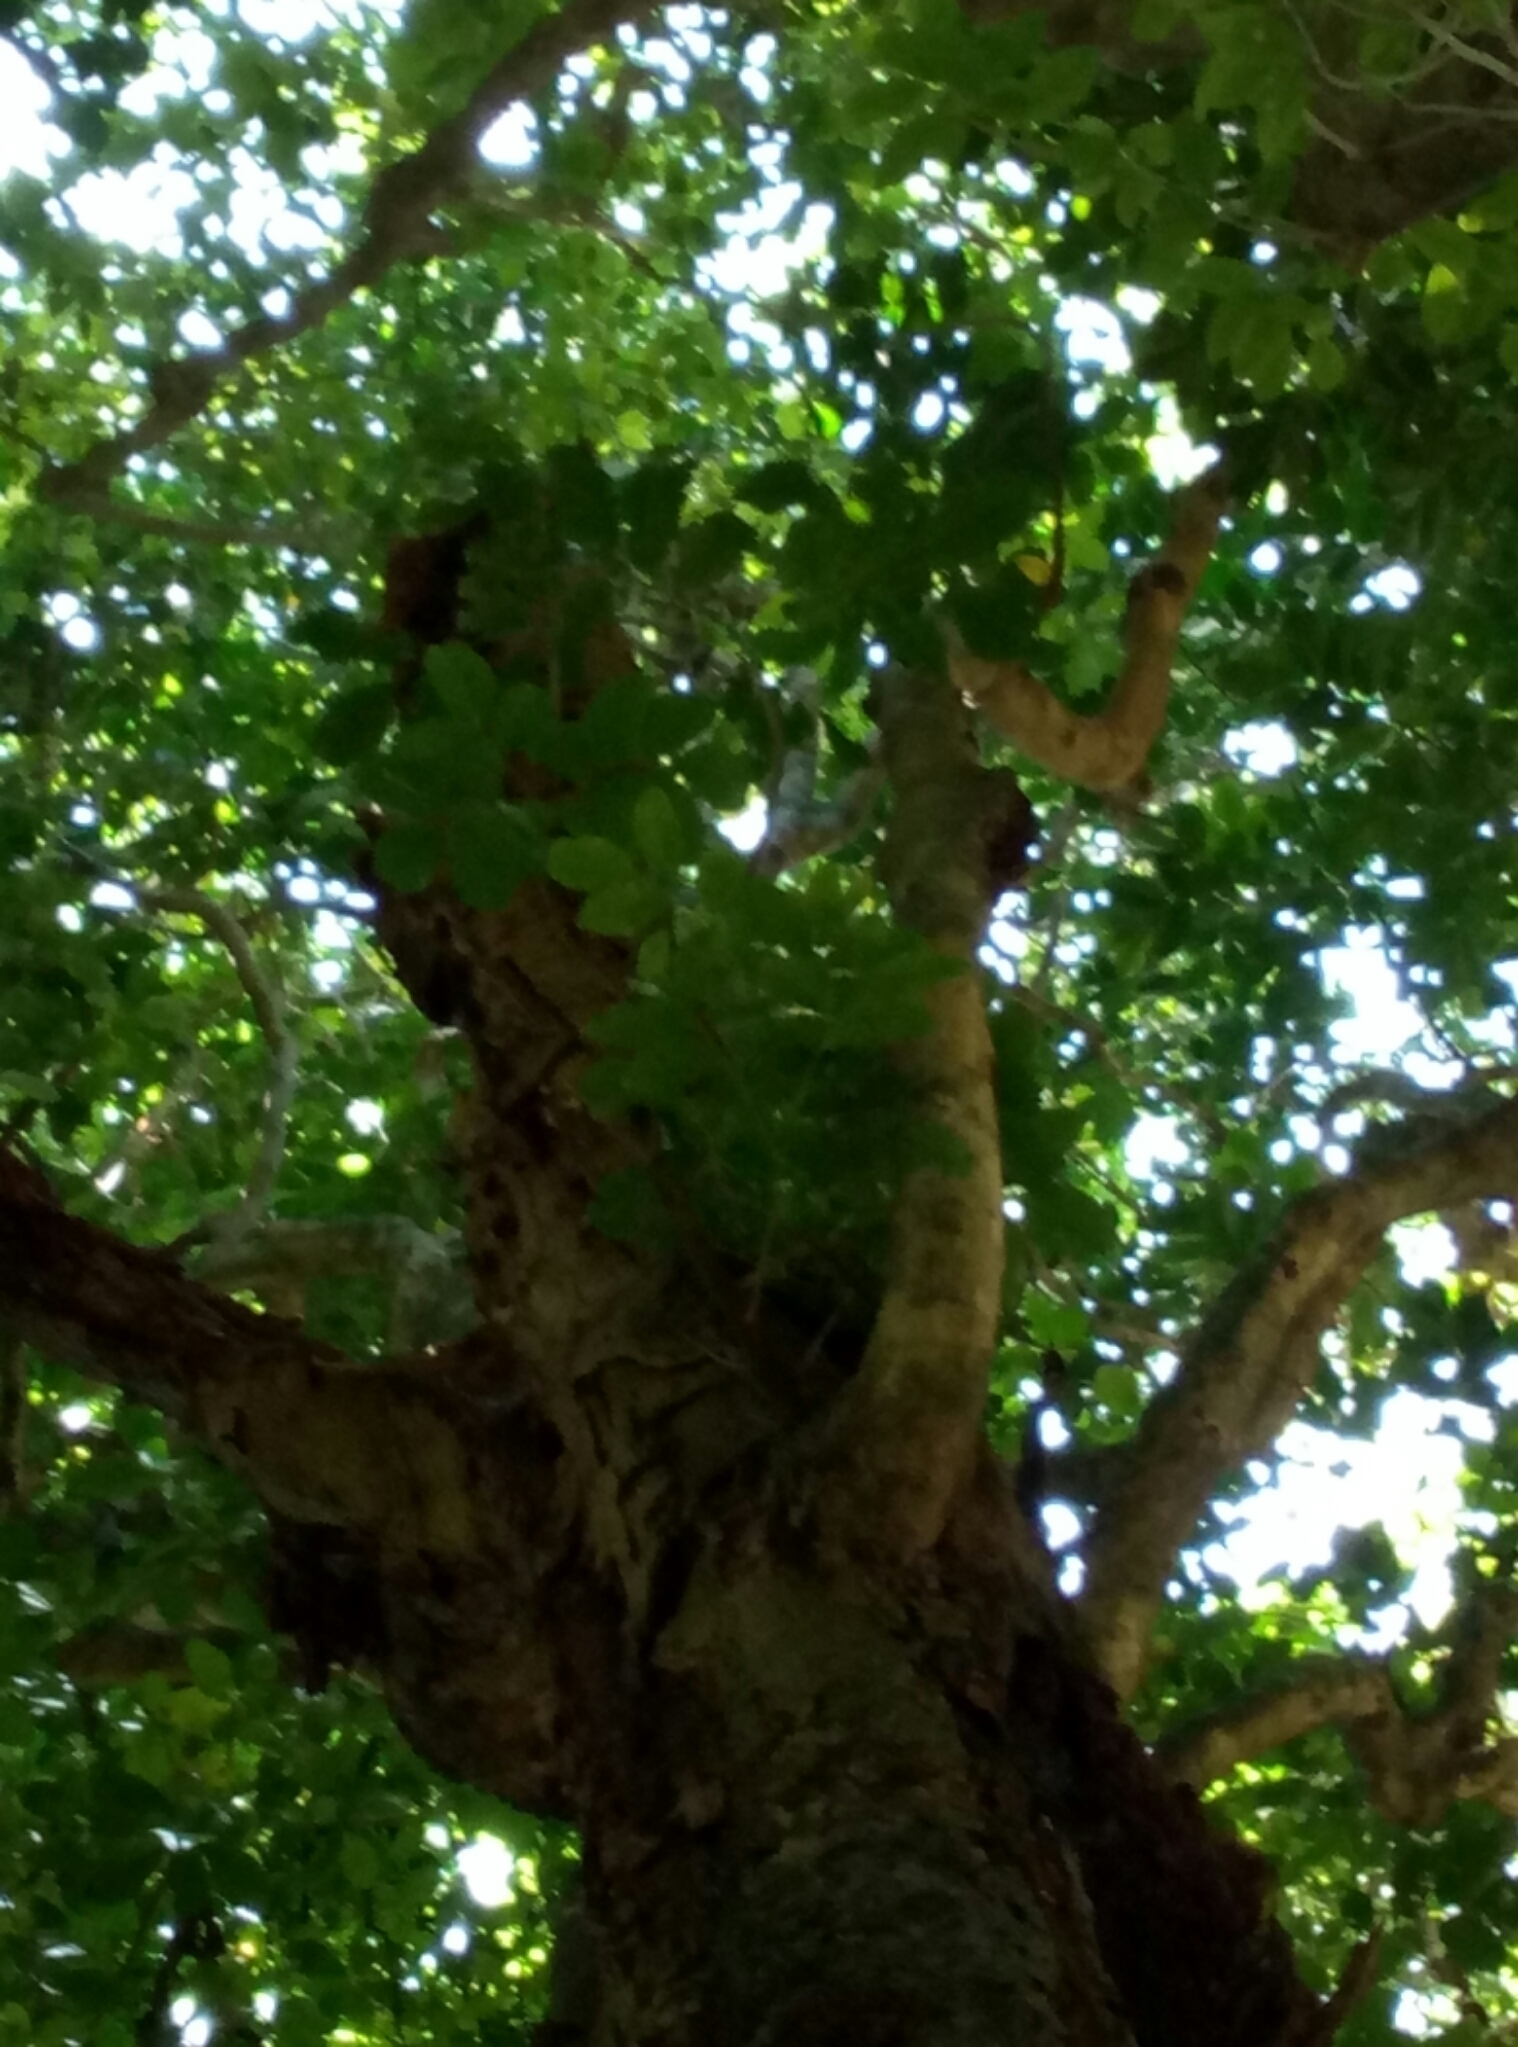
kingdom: Plantae
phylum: Tracheophyta
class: Magnoliopsida
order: Sapindales
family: Meliaceae
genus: Didymocheton
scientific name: Didymocheton spectabilis
